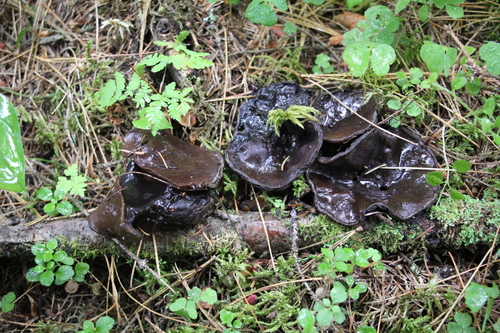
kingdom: Fungi
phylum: Ascomycota
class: Pezizomycetes
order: Pezizales
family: Sarcosomataceae
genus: Sarcosoma
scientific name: Sarcosoma globosum
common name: Charred-pancake cup
